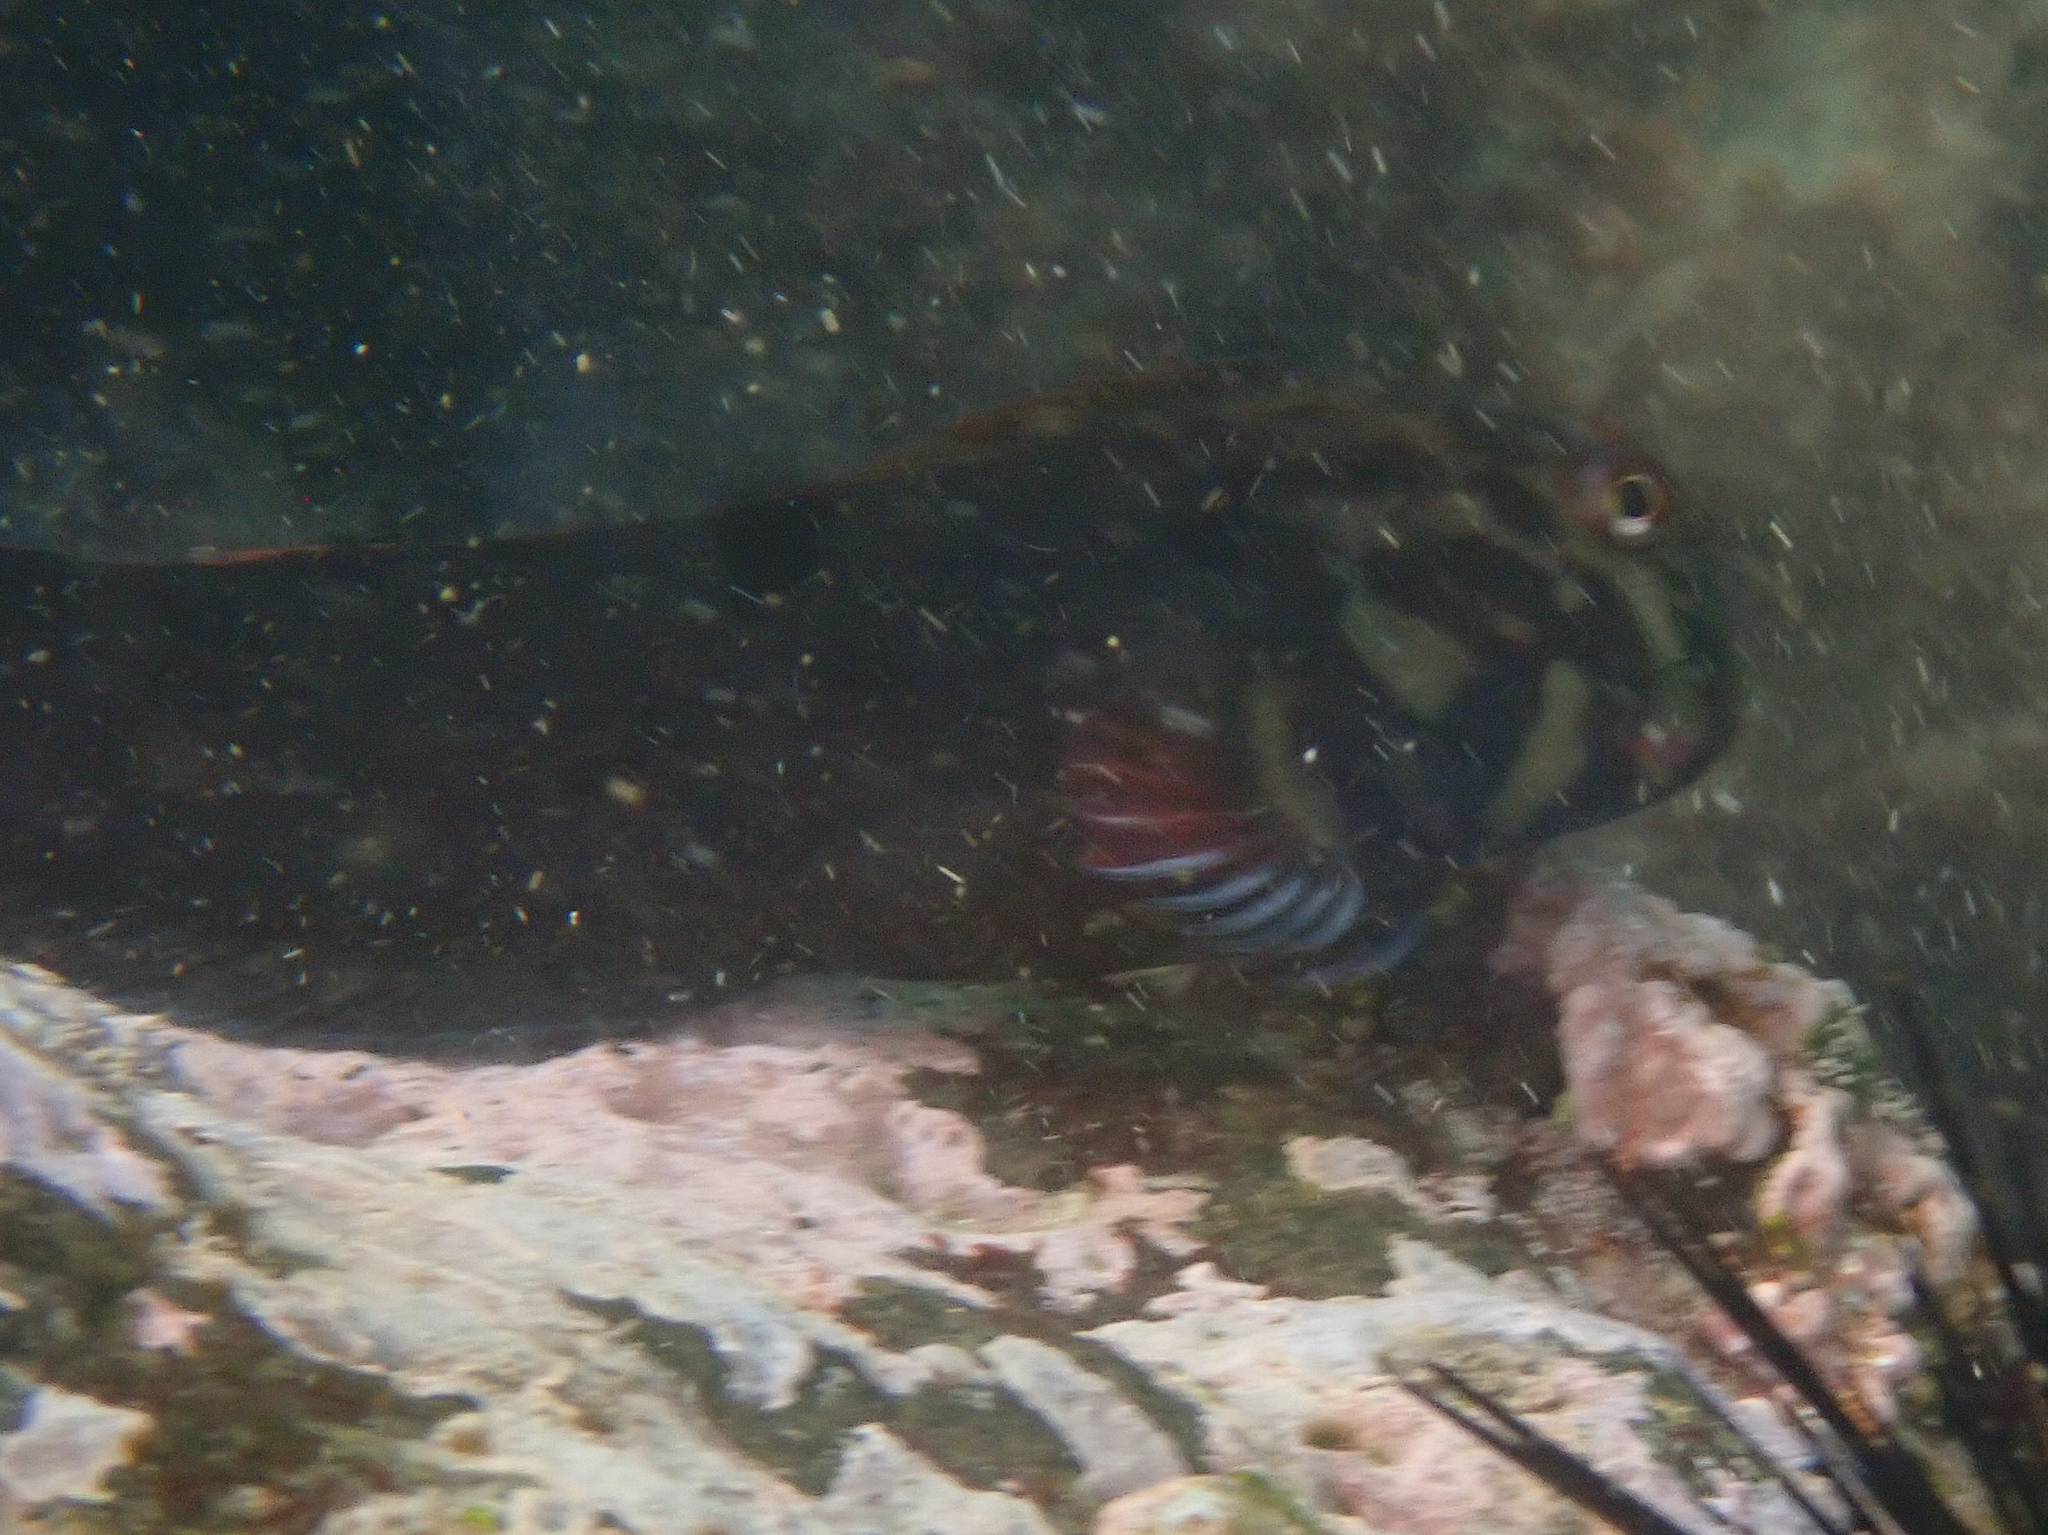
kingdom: Animalia
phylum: Chordata
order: Perciformes
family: Blenniidae
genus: Ophioblennius
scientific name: Ophioblennius atlanticus
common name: Redlip blenny
